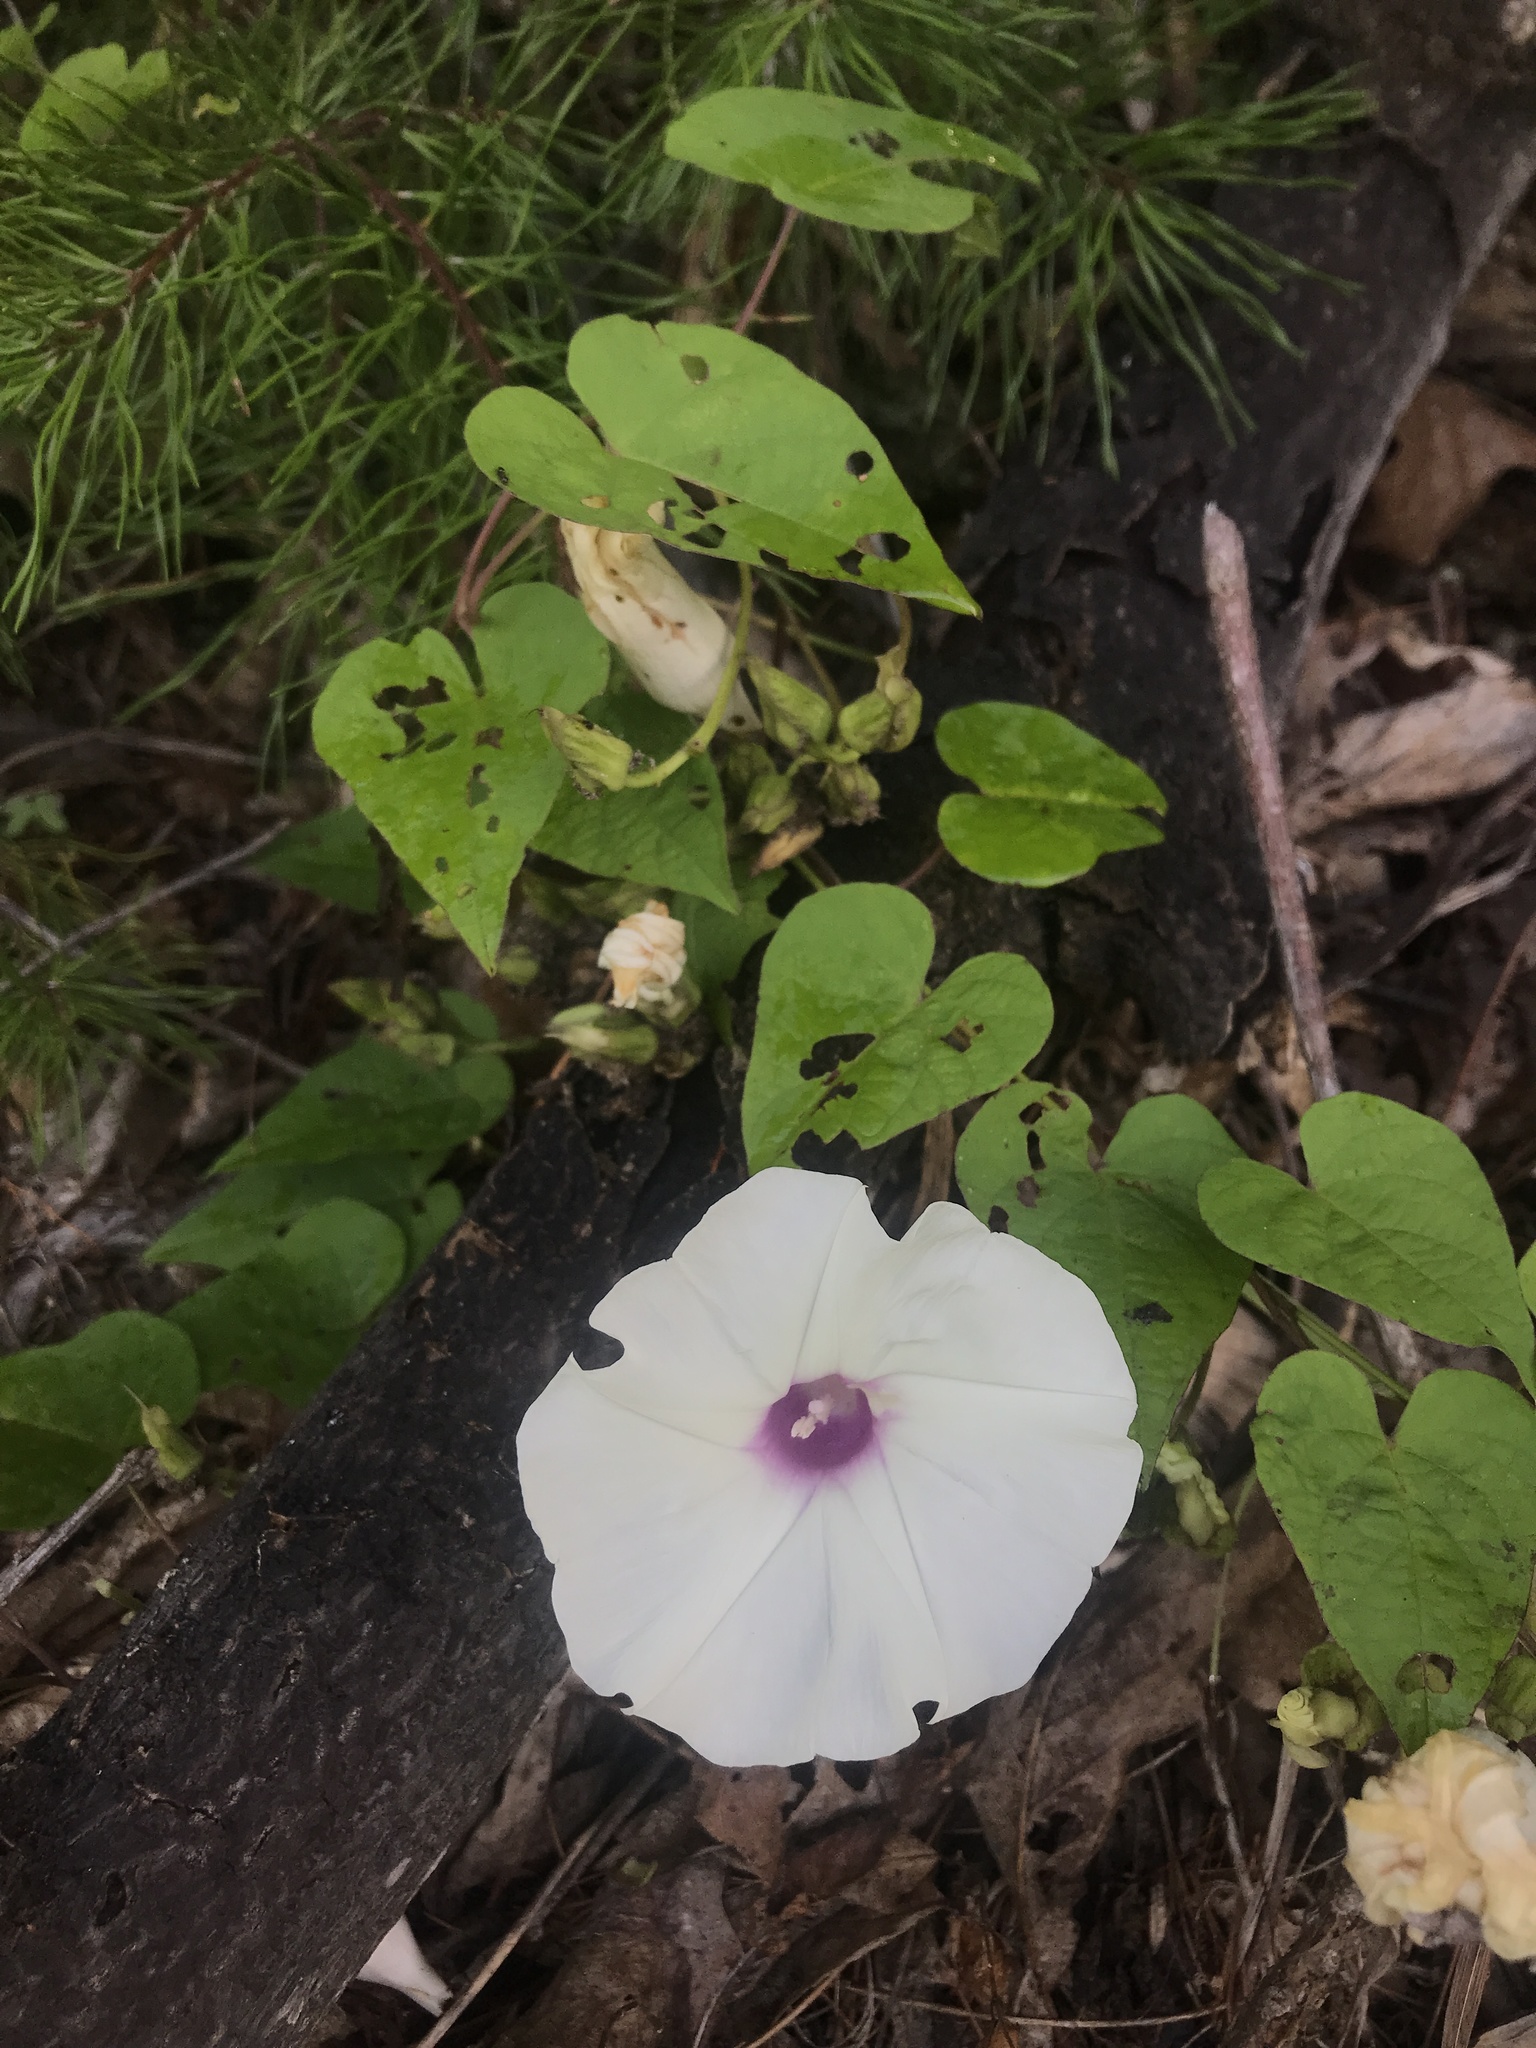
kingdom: Plantae
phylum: Tracheophyta
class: Magnoliopsida
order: Solanales
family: Convolvulaceae
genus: Ipomoea
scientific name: Ipomoea pandurata
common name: Man-of-the-earth
